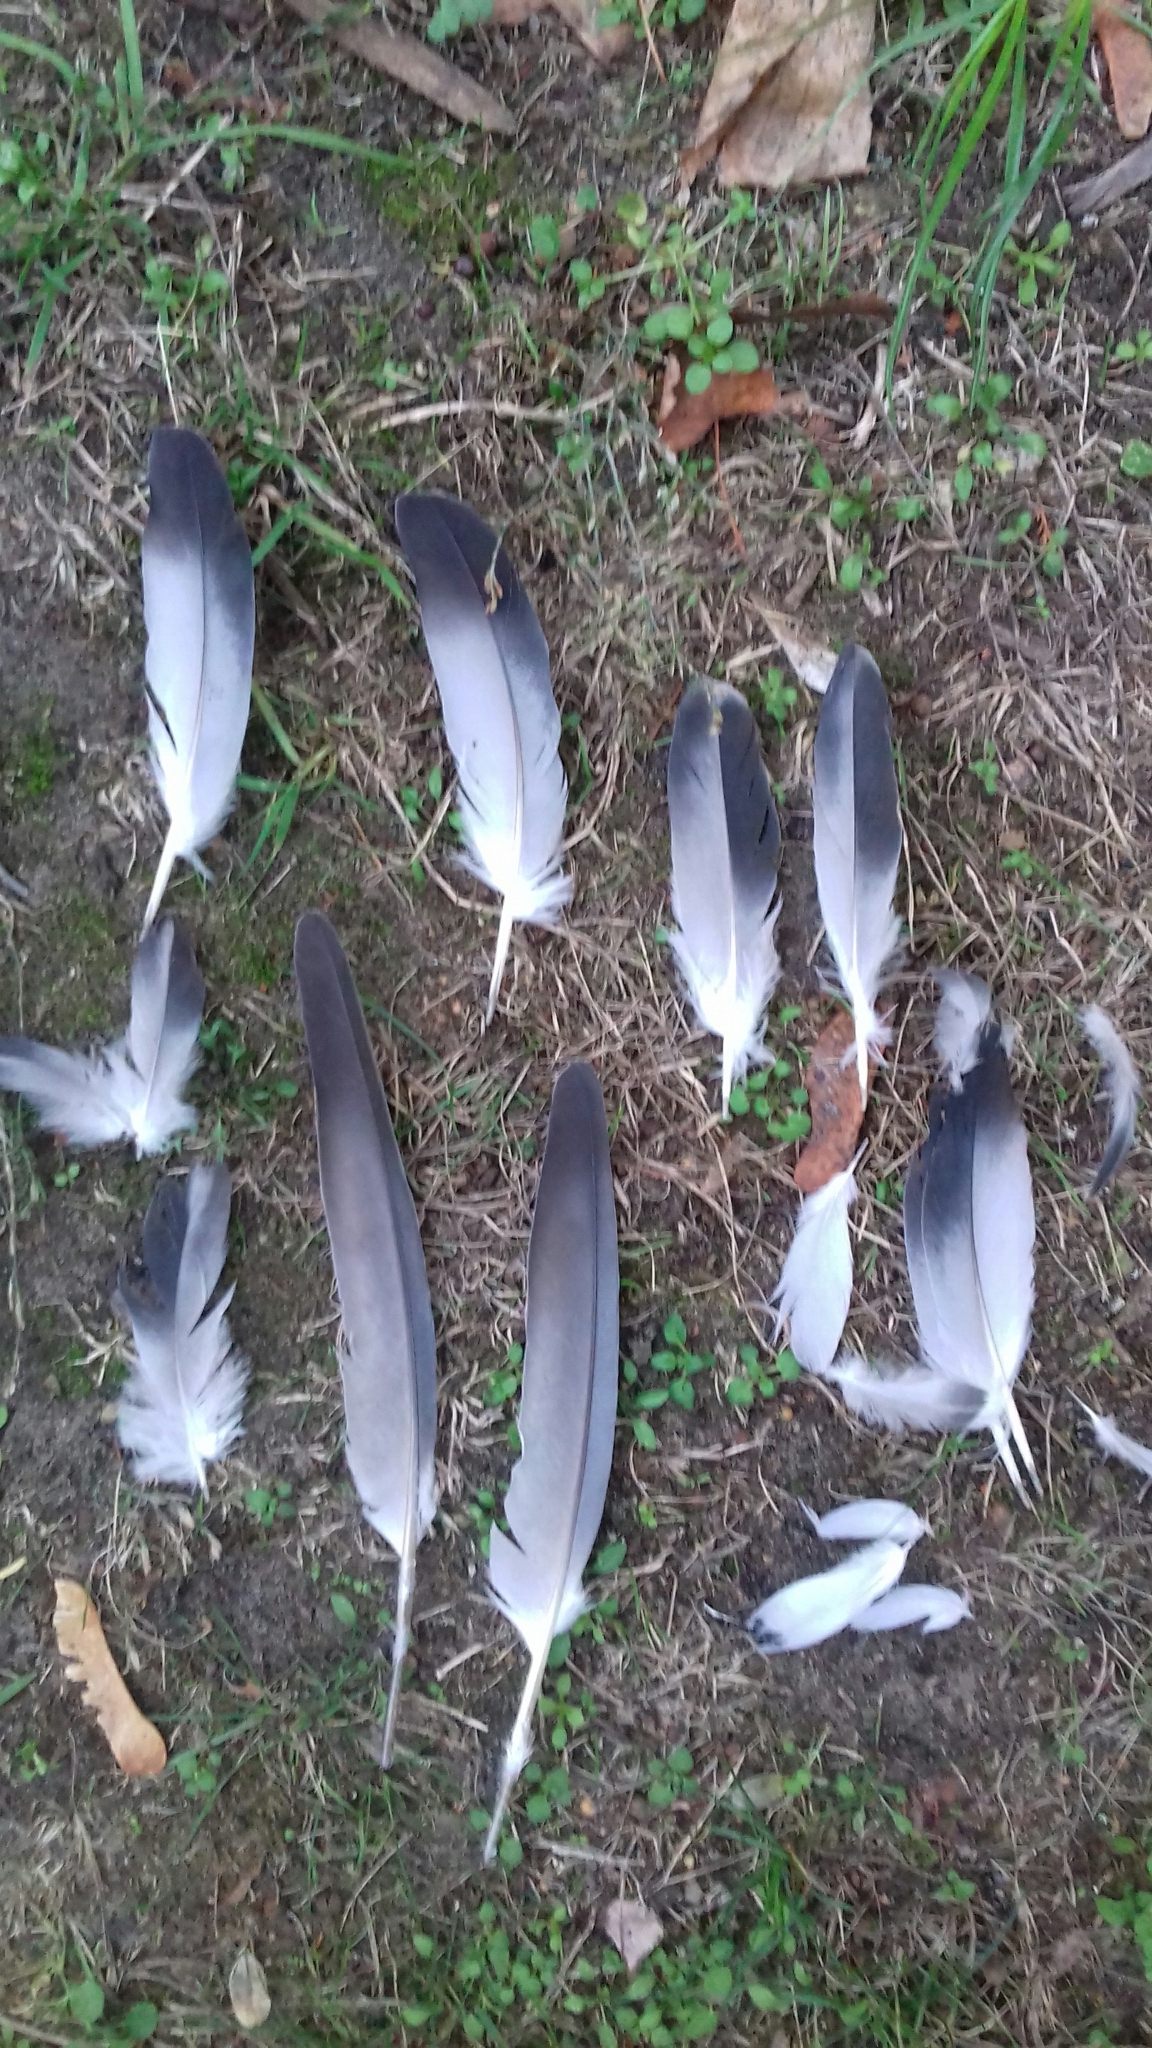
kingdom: Animalia
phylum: Chordata
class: Aves
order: Columbiformes
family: Columbidae
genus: Columba
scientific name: Columba livia
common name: Rock pigeon
